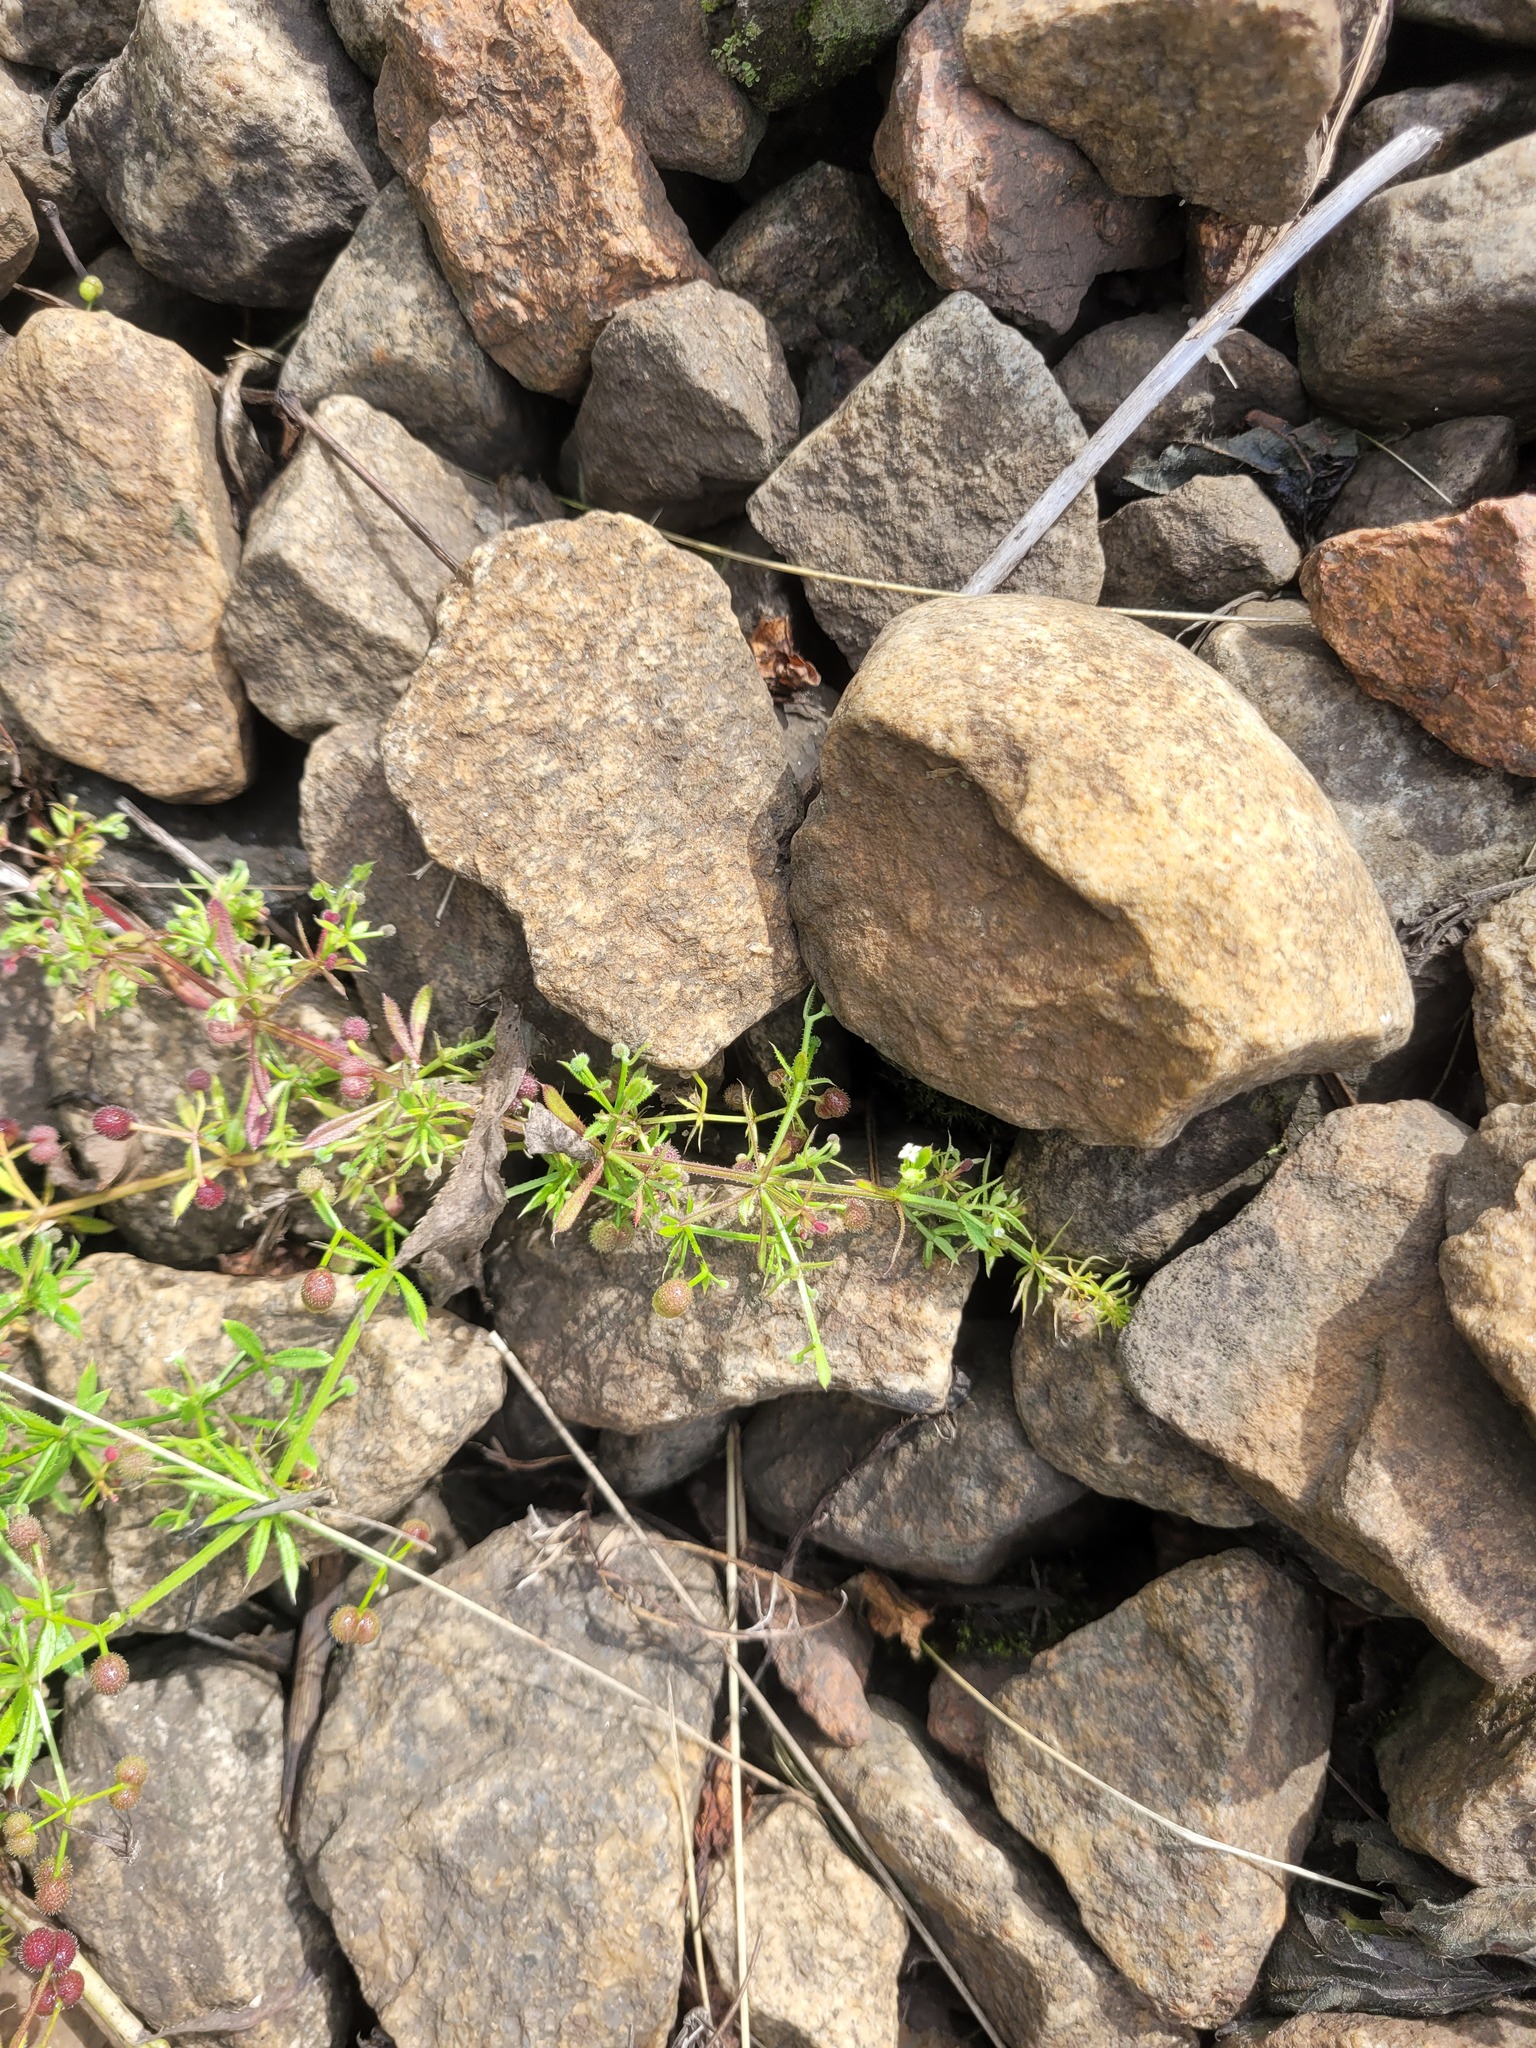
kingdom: Plantae
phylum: Tracheophyta
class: Magnoliopsida
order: Gentianales
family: Rubiaceae
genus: Galium
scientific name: Galium aparine
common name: Cleavers
